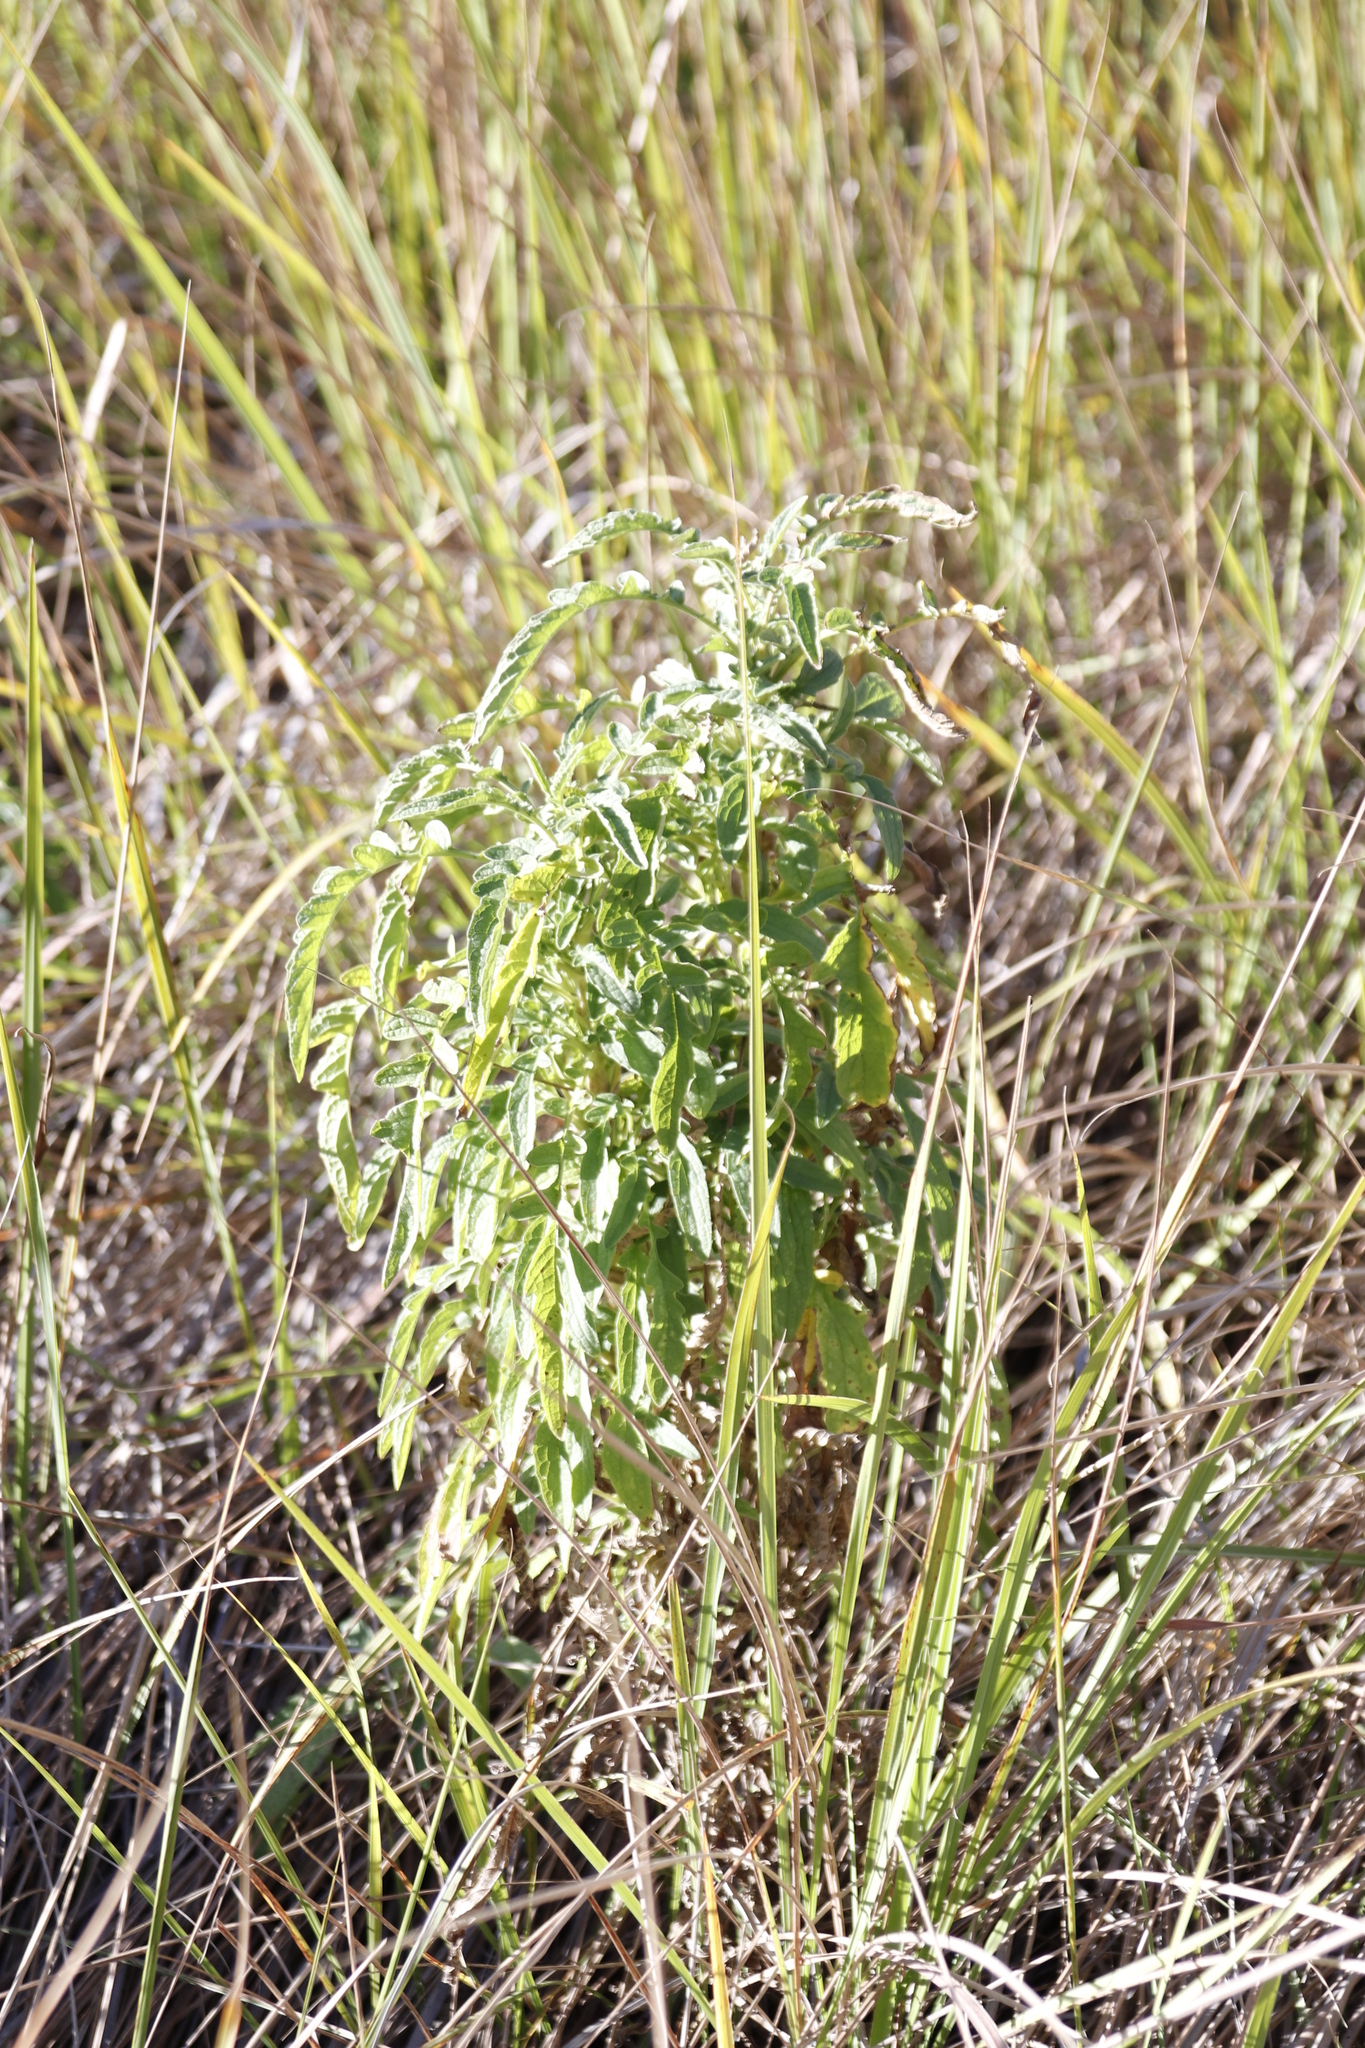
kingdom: Plantae
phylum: Tracheophyta
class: Magnoliopsida
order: Asterales
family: Asteraceae
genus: Heteromma
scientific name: Heteromma decurrens
